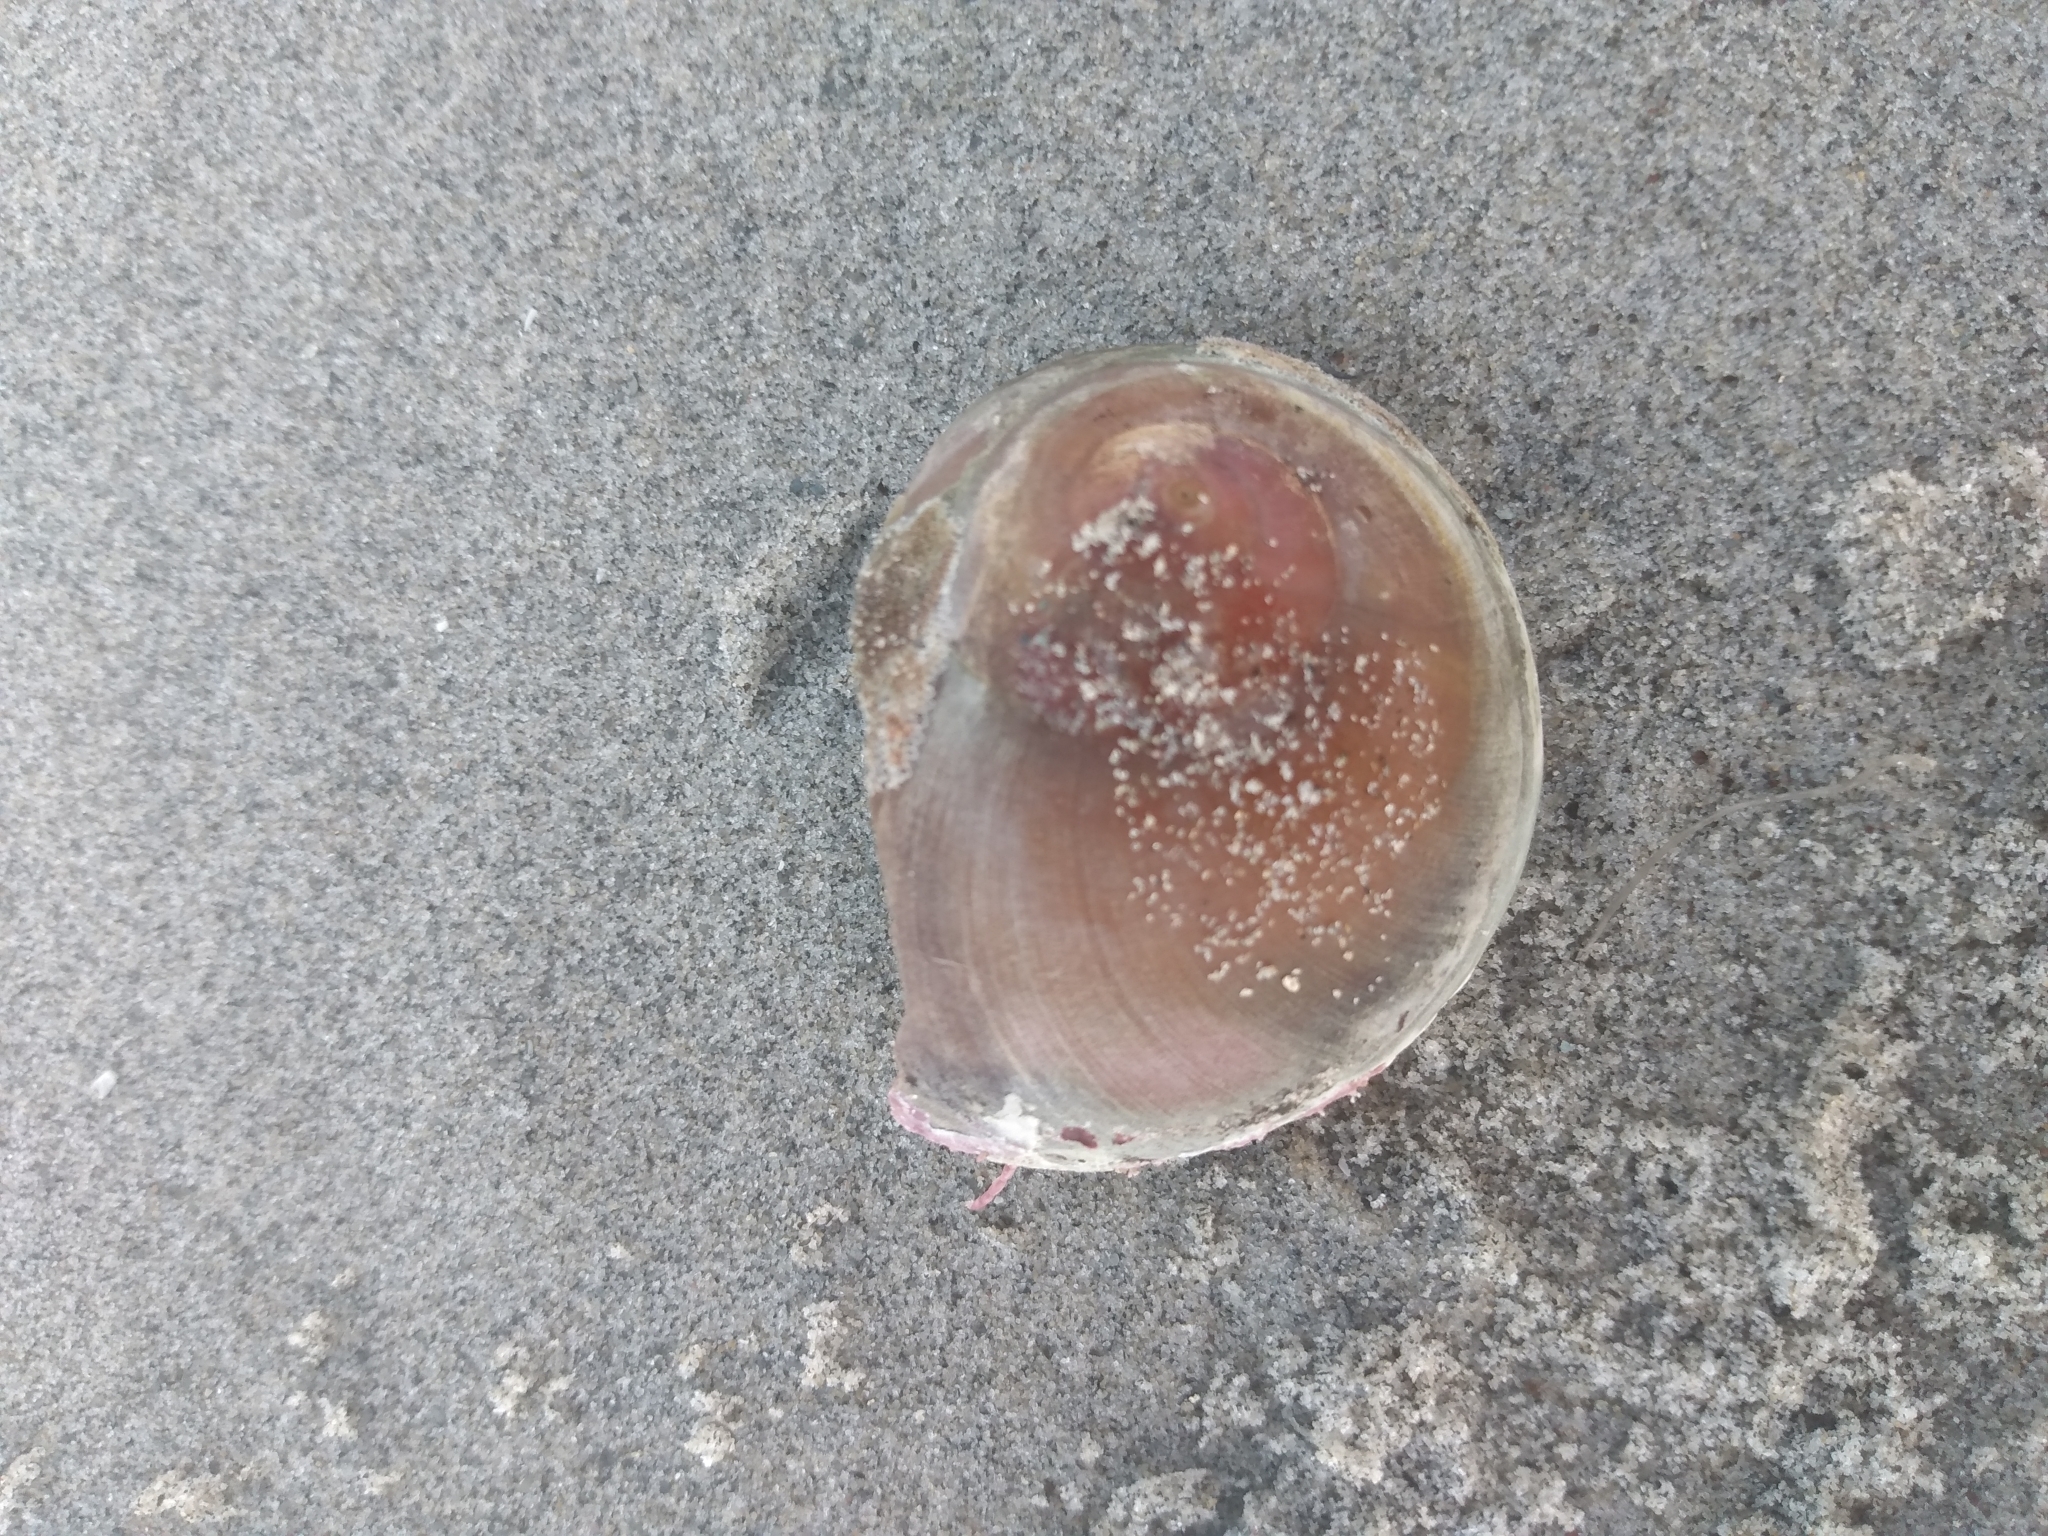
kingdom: Animalia
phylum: Mollusca
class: Gastropoda
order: Trochida
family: Tegulidae
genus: Norrisia
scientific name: Norrisia norrisii
